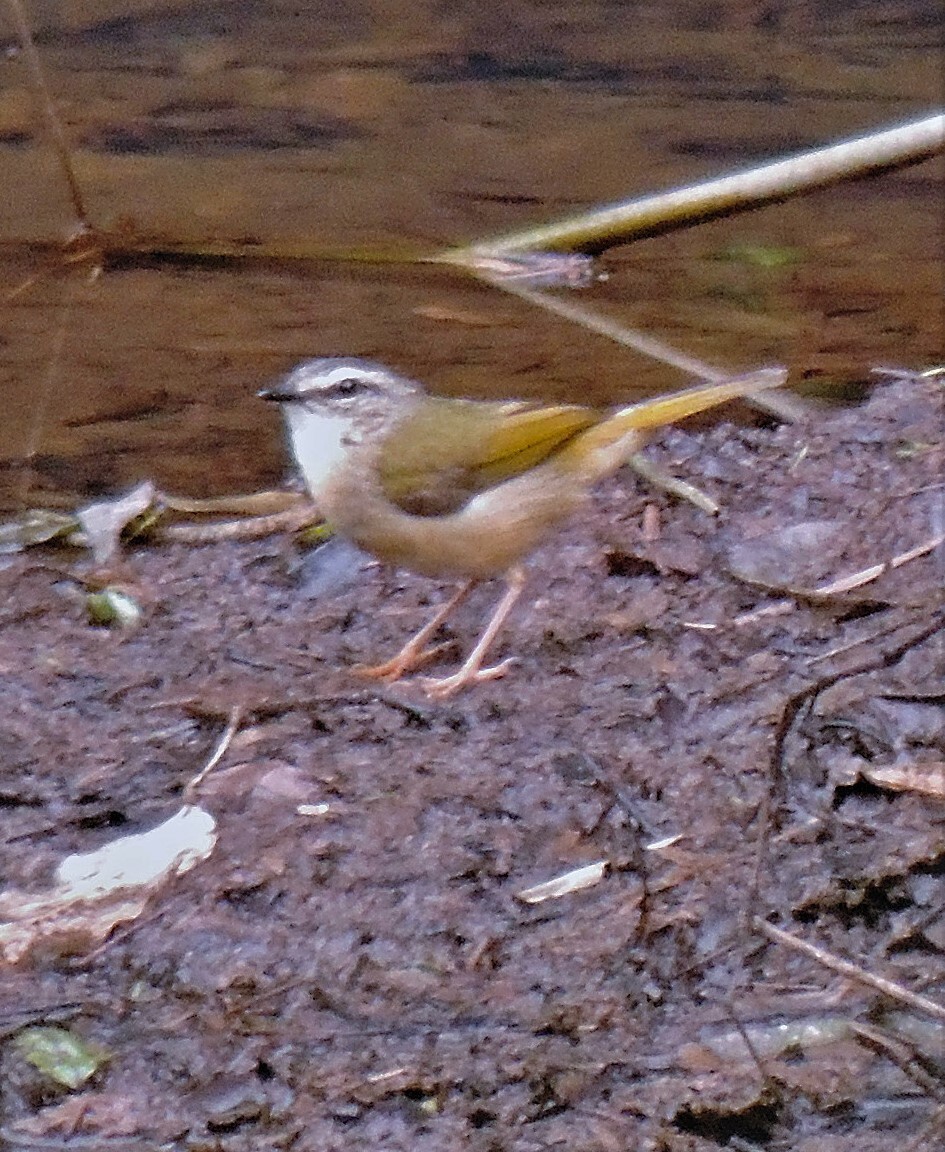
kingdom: Animalia
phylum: Chordata
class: Aves
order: Passeriformes
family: Parulidae
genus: Myiothlypis
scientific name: Myiothlypis rivularis
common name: Riverbank warbler
